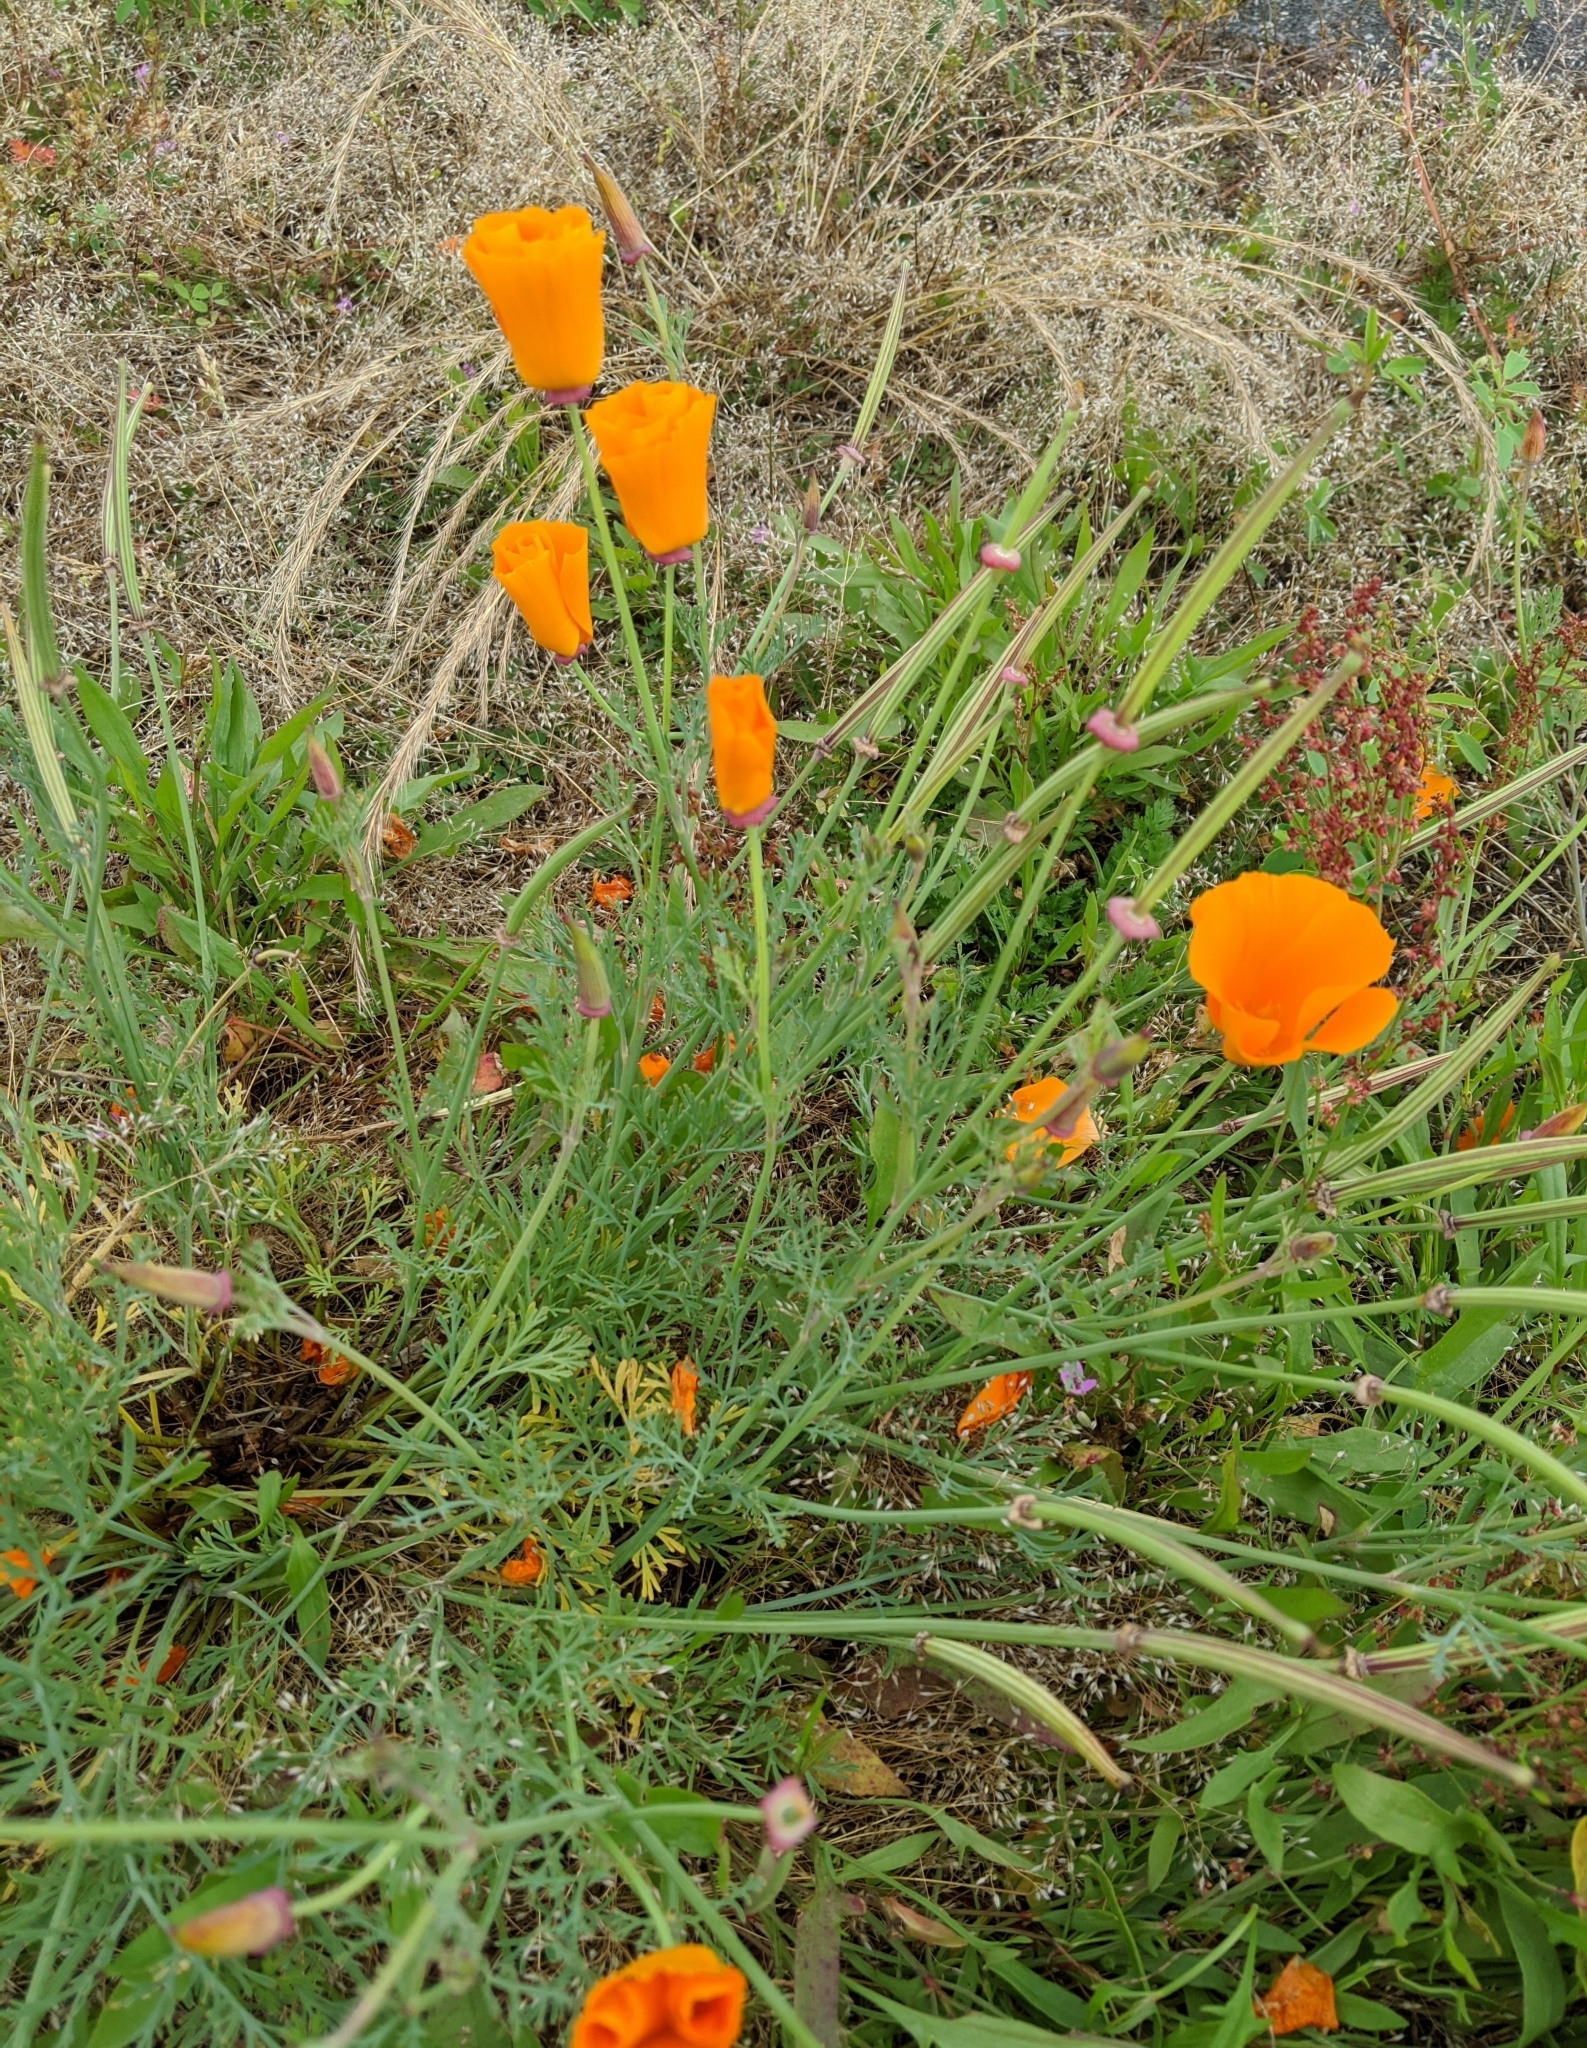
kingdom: Plantae
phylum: Tracheophyta
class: Magnoliopsida
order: Ranunculales
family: Papaveraceae
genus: Eschscholzia
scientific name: Eschscholzia californica
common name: California poppy
